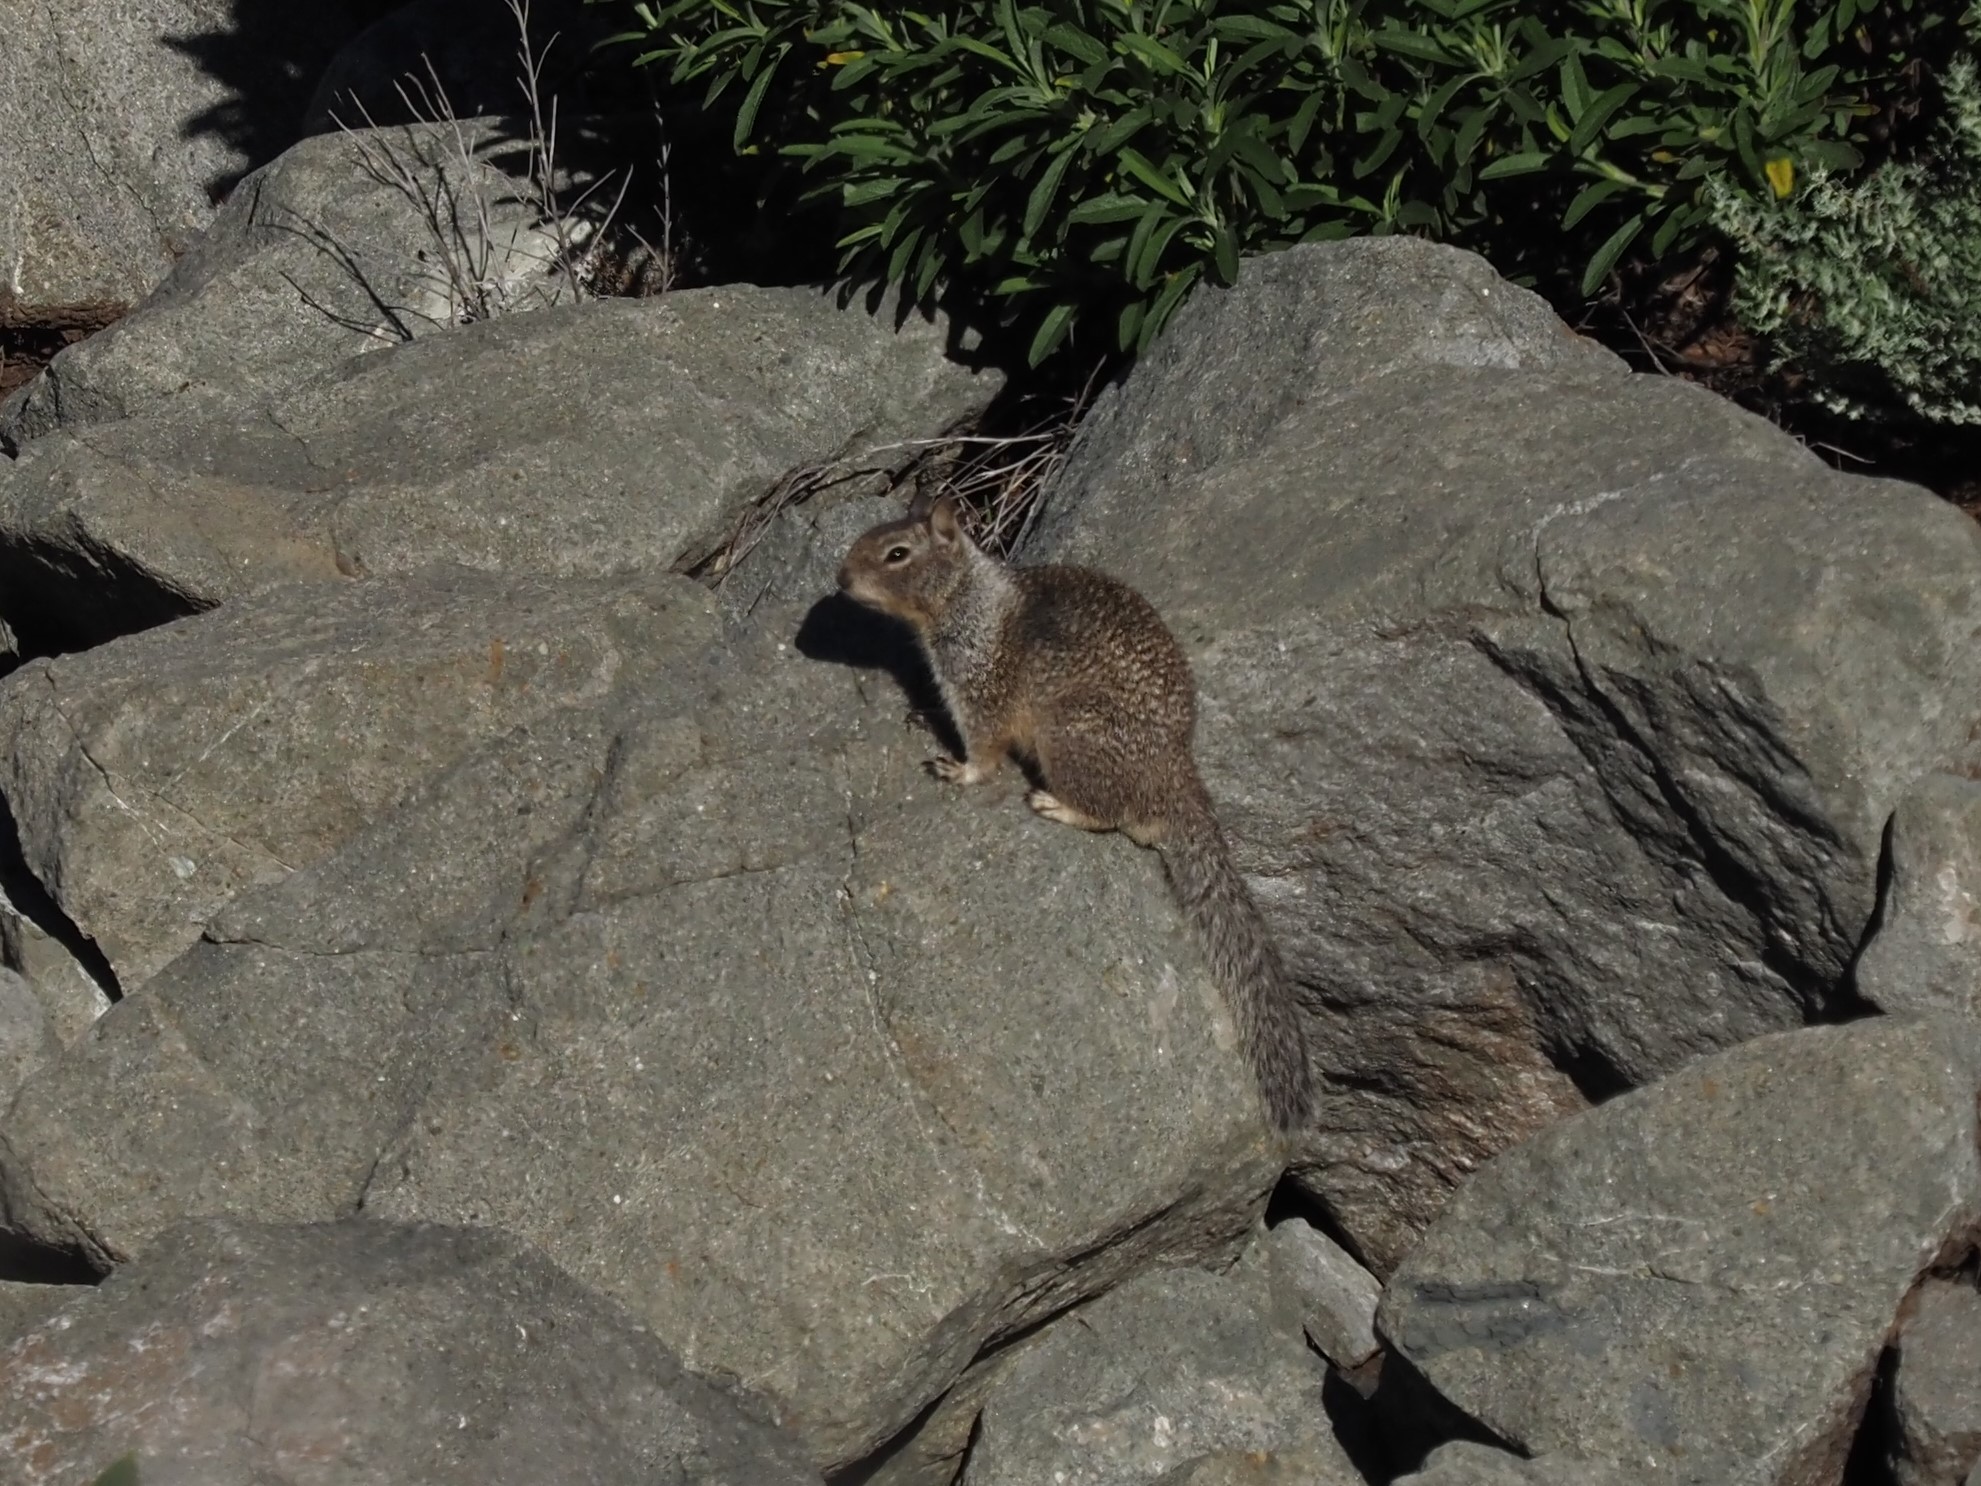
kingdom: Animalia
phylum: Chordata
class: Mammalia
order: Rodentia
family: Sciuridae
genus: Otospermophilus
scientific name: Otospermophilus beecheyi
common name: California ground squirrel
